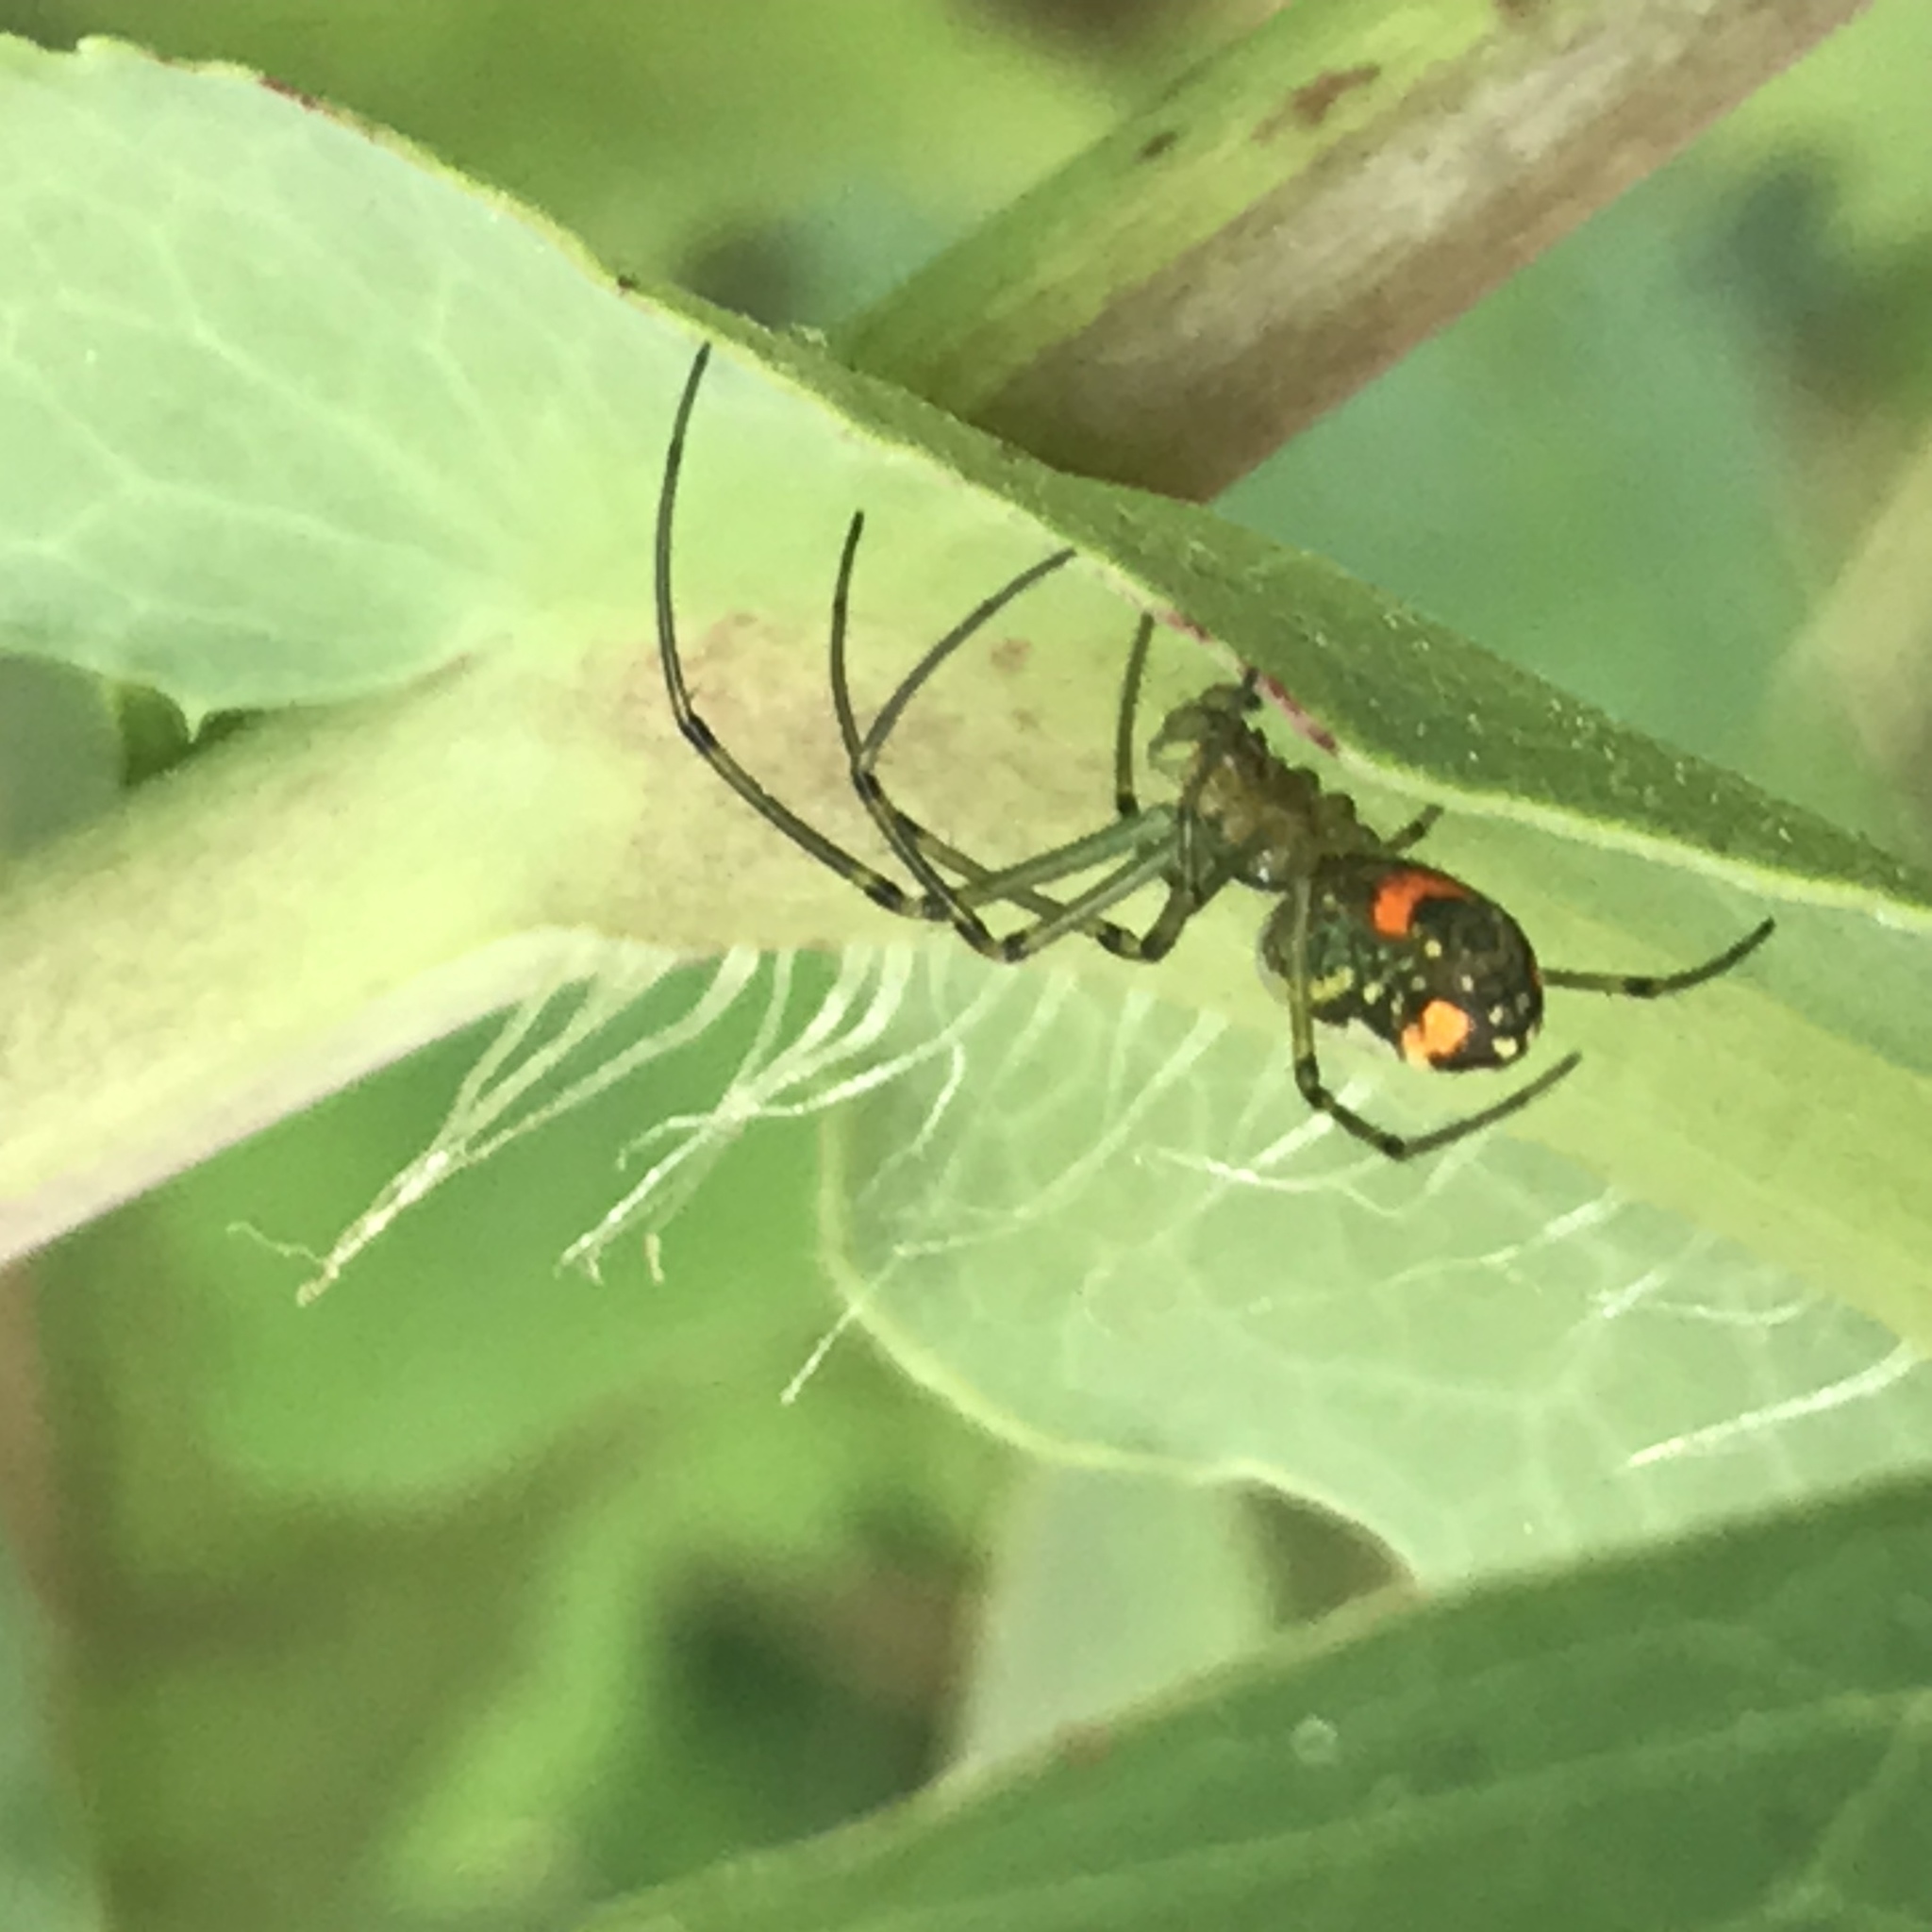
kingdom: Animalia
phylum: Arthropoda
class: Arachnida
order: Araneae
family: Tetragnathidae
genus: Leucauge
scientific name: Leucauge argyrobapta
